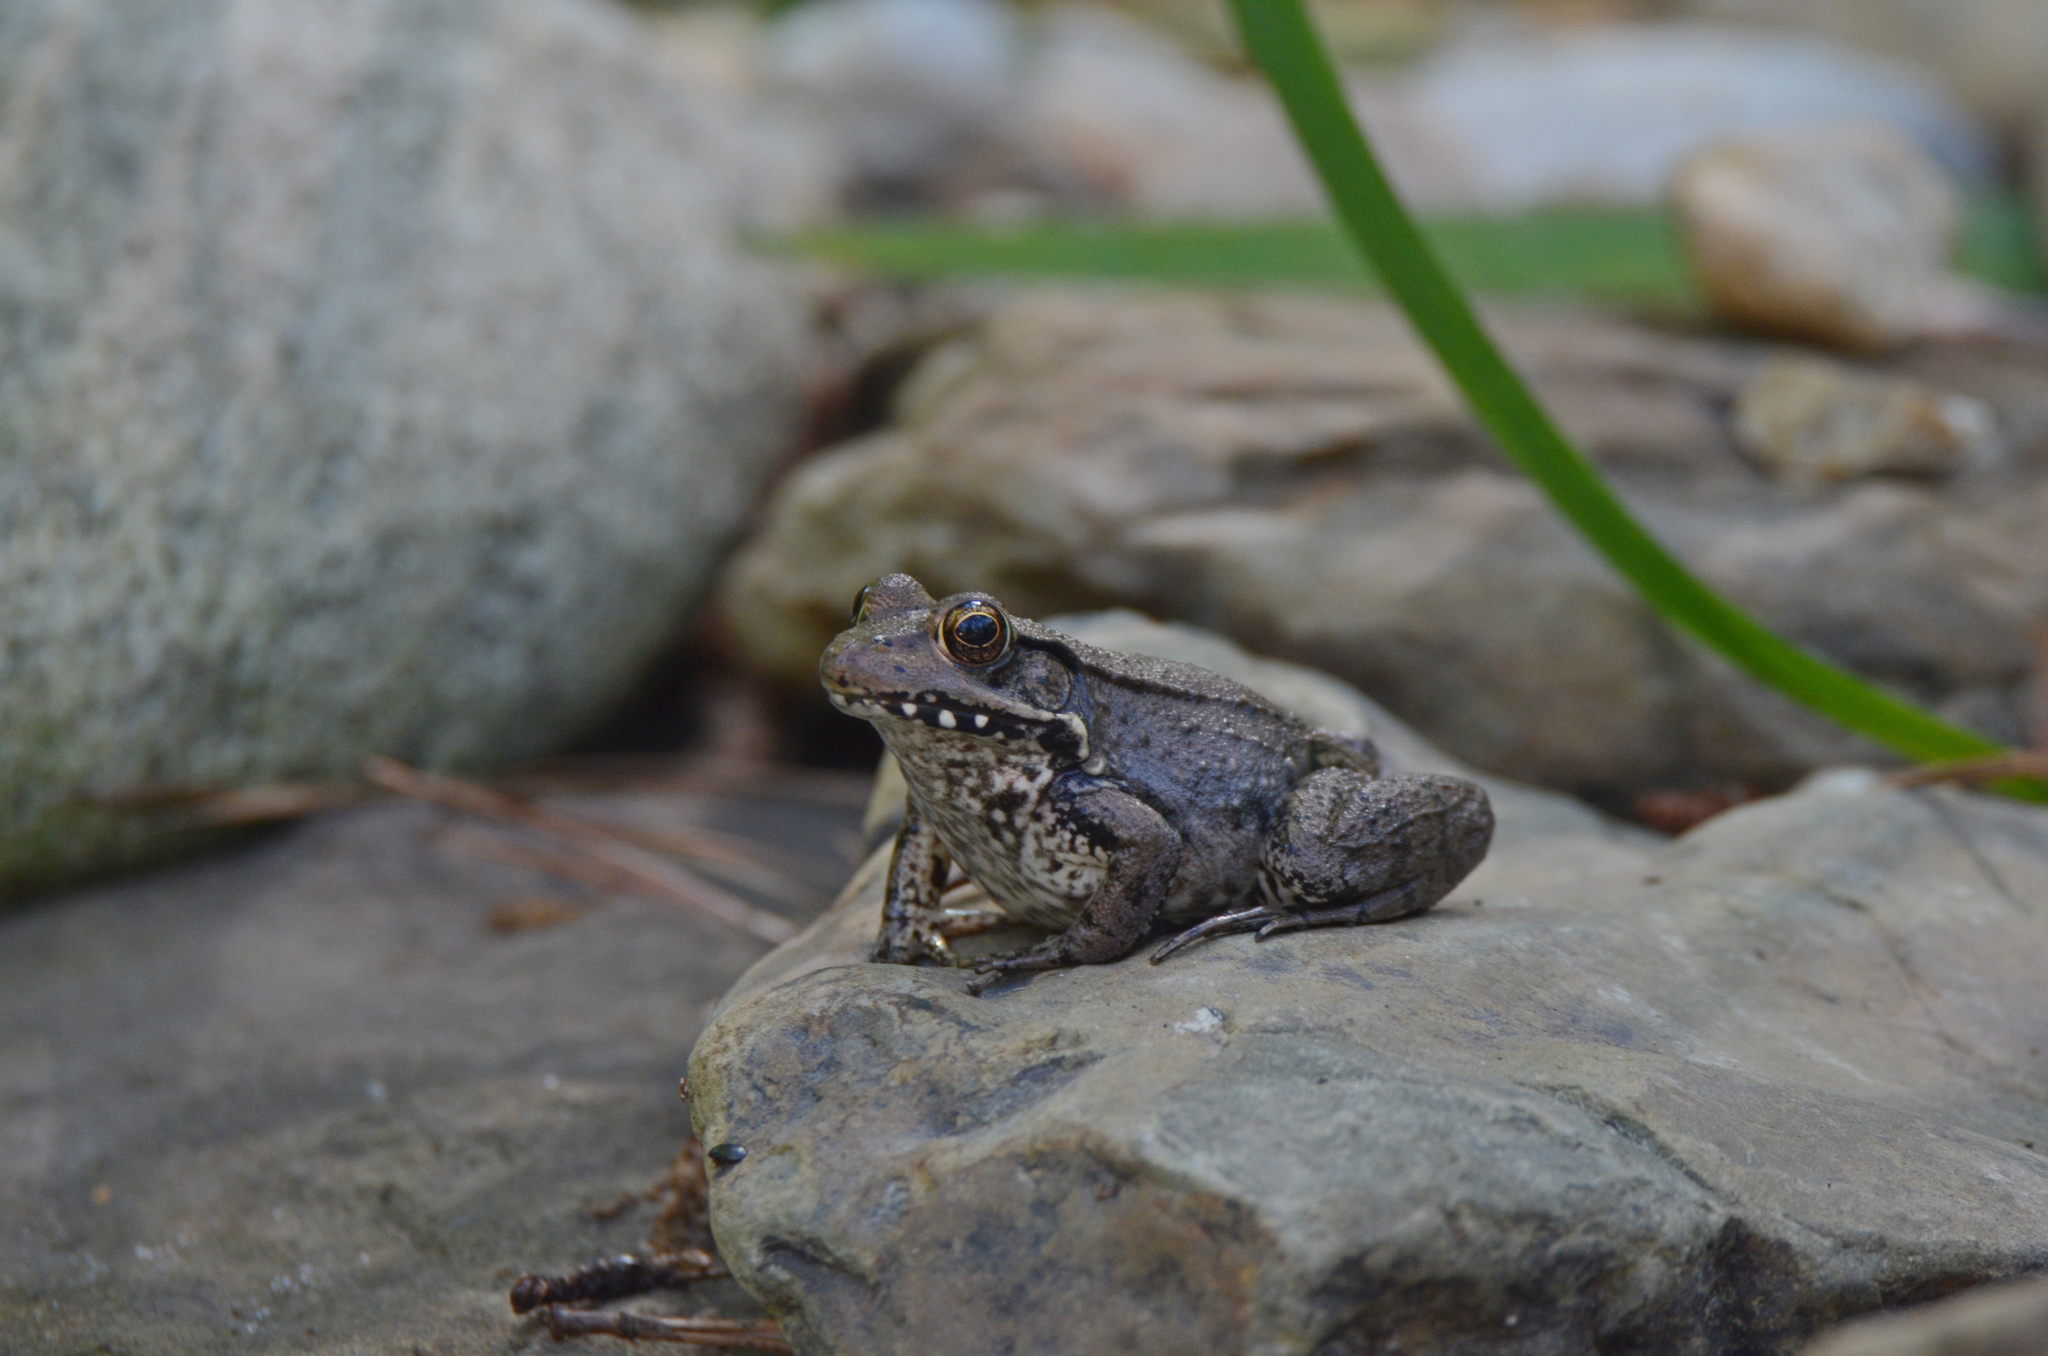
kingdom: Animalia
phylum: Chordata
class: Amphibia
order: Anura
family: Ranidae
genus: Lithobates
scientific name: Lithobates clamitans
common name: Green frog
